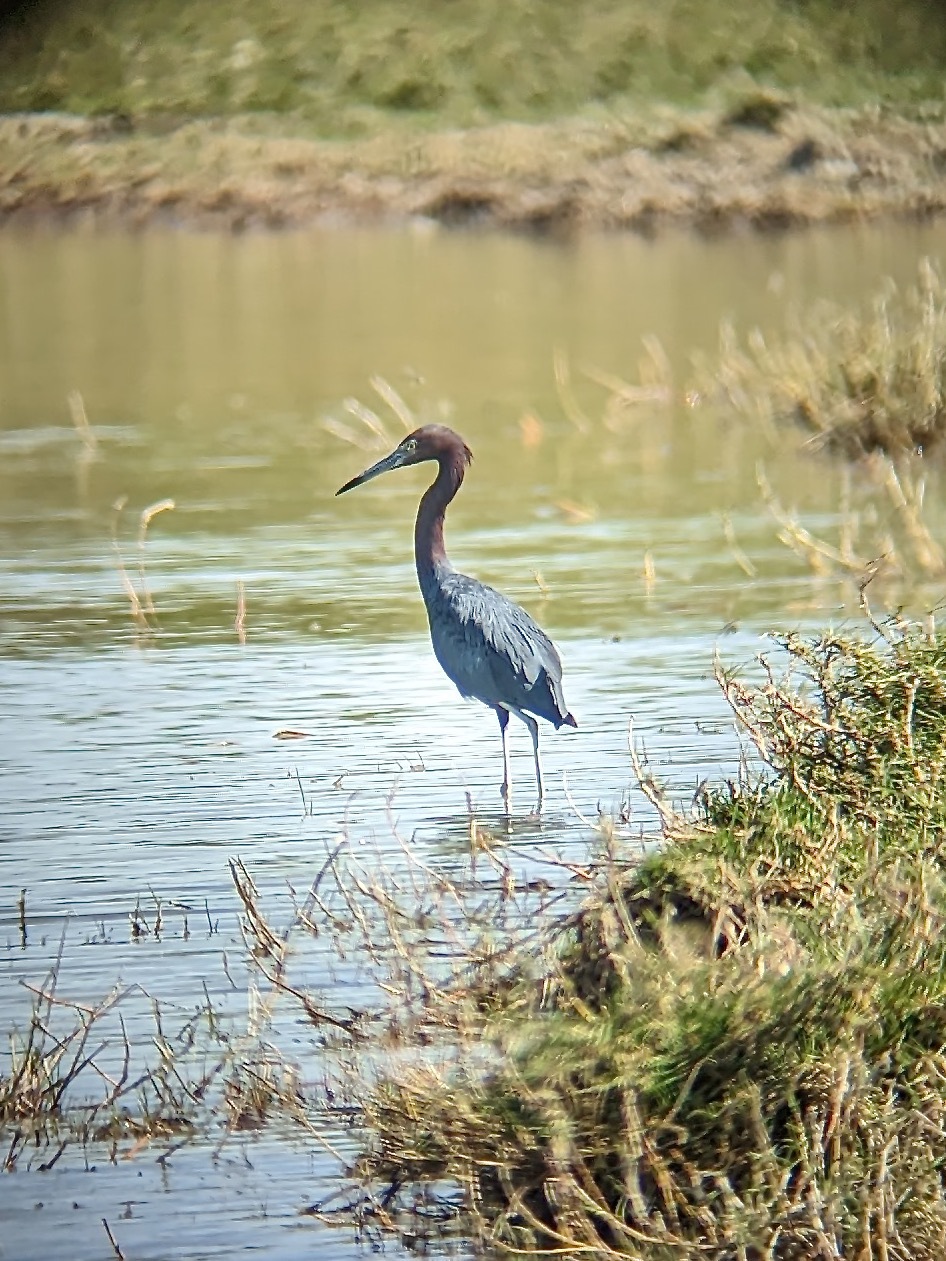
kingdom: Animalia
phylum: Chordata
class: Aves
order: Pelecaniformes
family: Ardeidae
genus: Egretta
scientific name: Egretta caerulea
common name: Little blue heron
